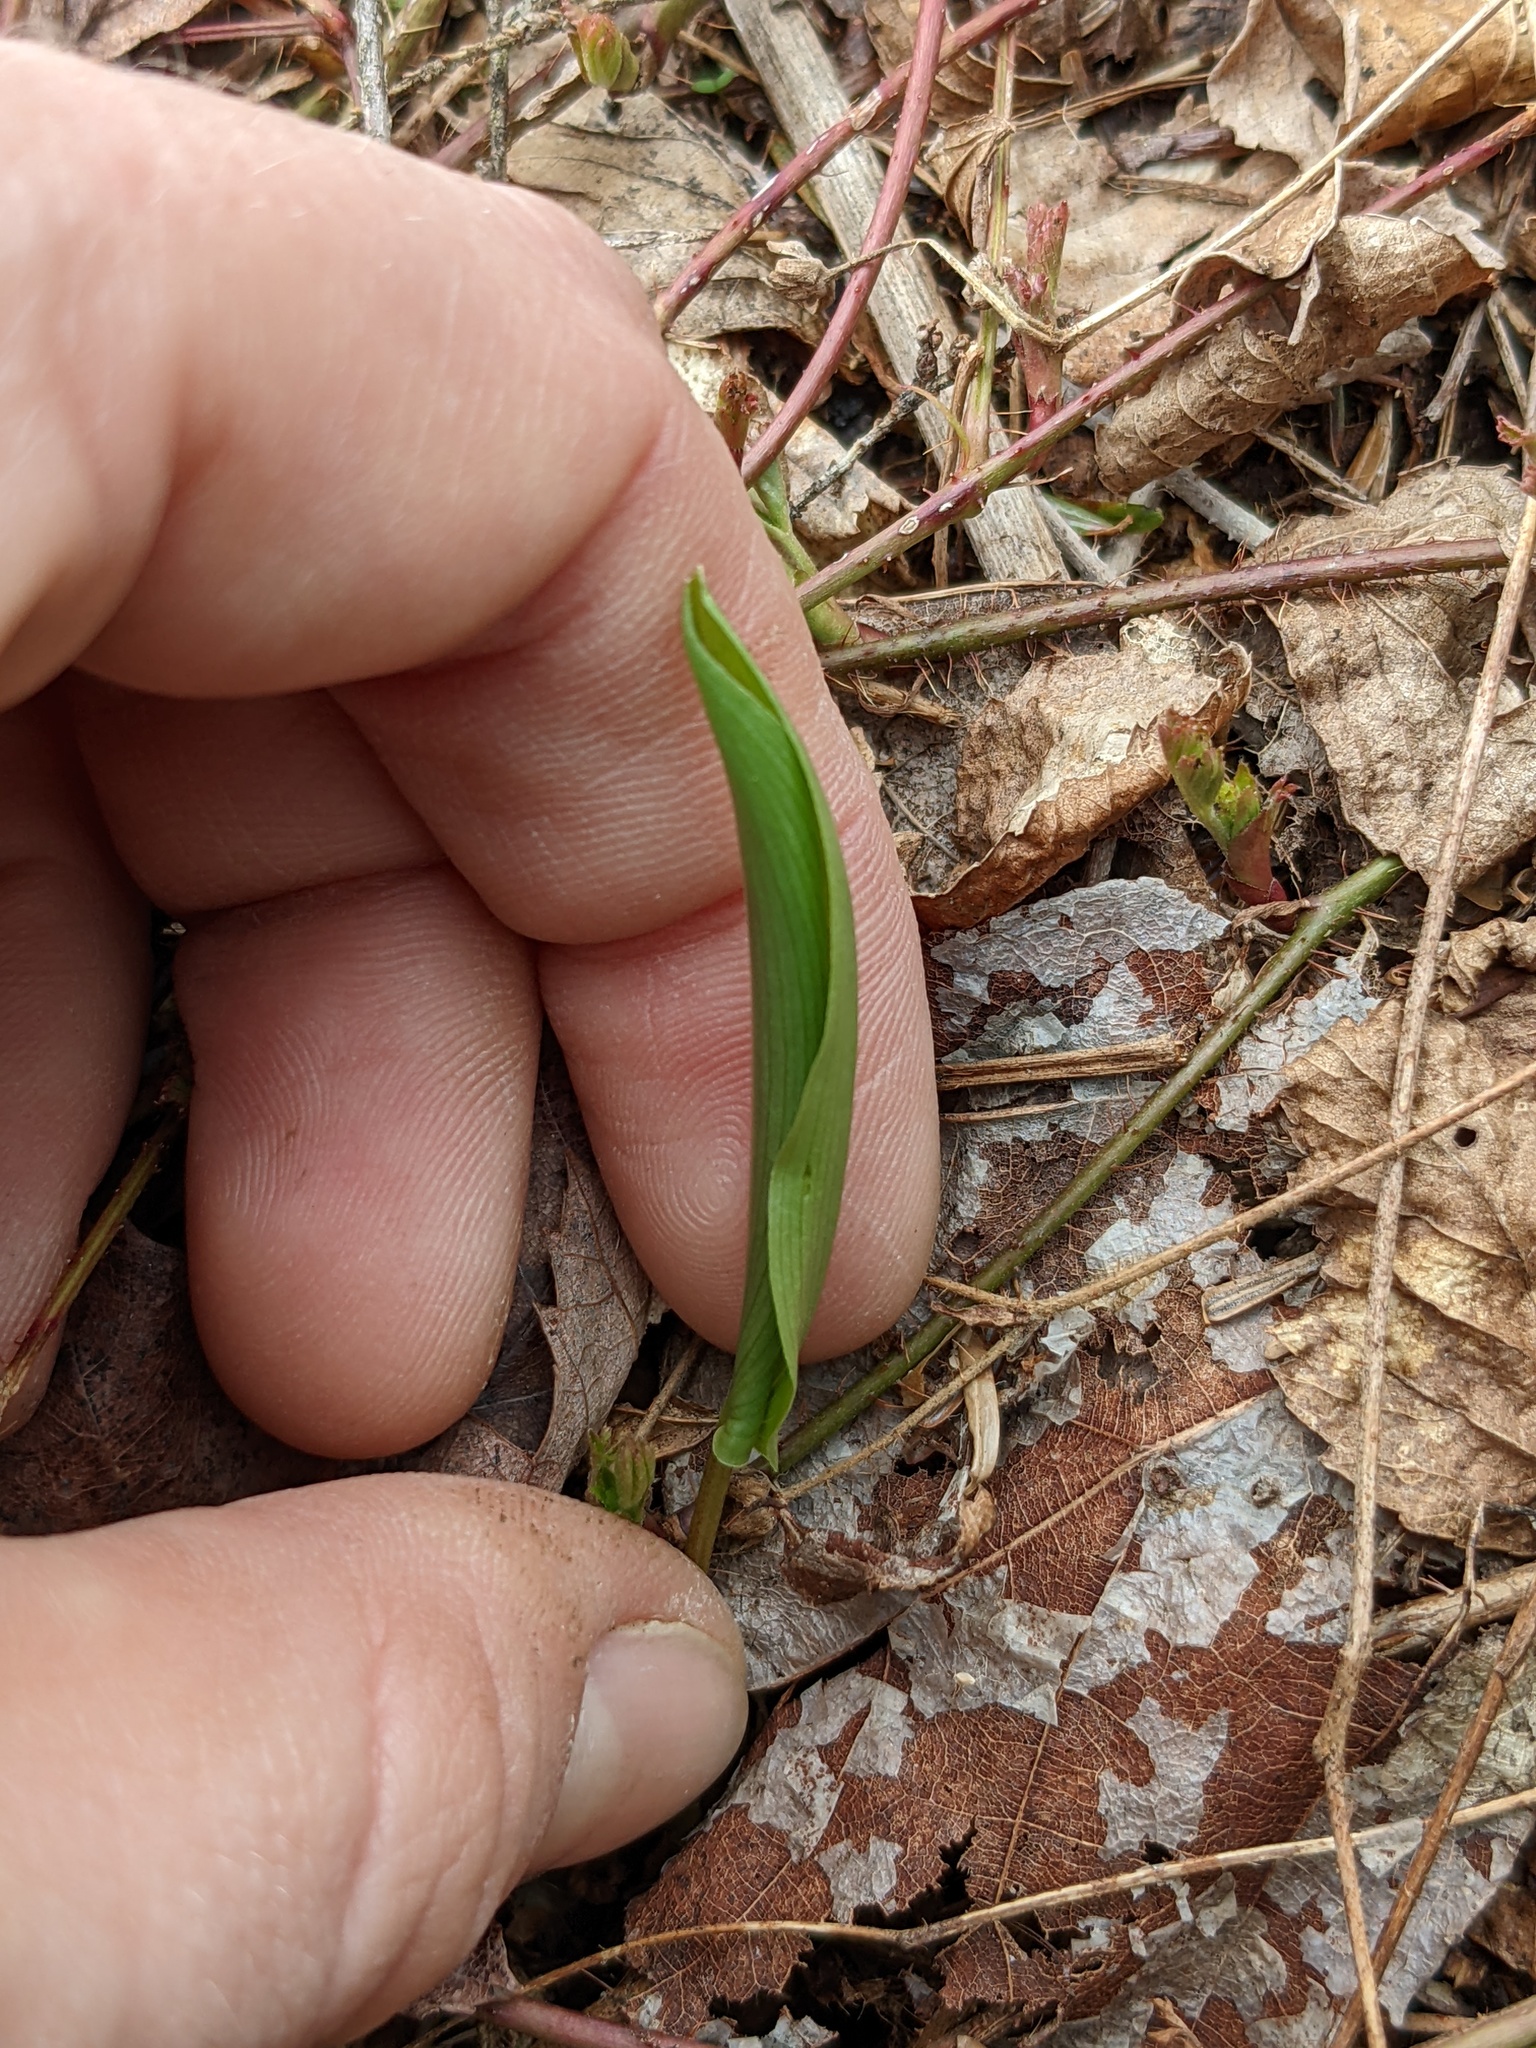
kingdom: Plantae
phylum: Tracheophyta
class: Liliopsida
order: Asparagales
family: Asparagaceae
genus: Maianthemum
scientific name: Maianthemum canadense
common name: False lily-of-the-valley
